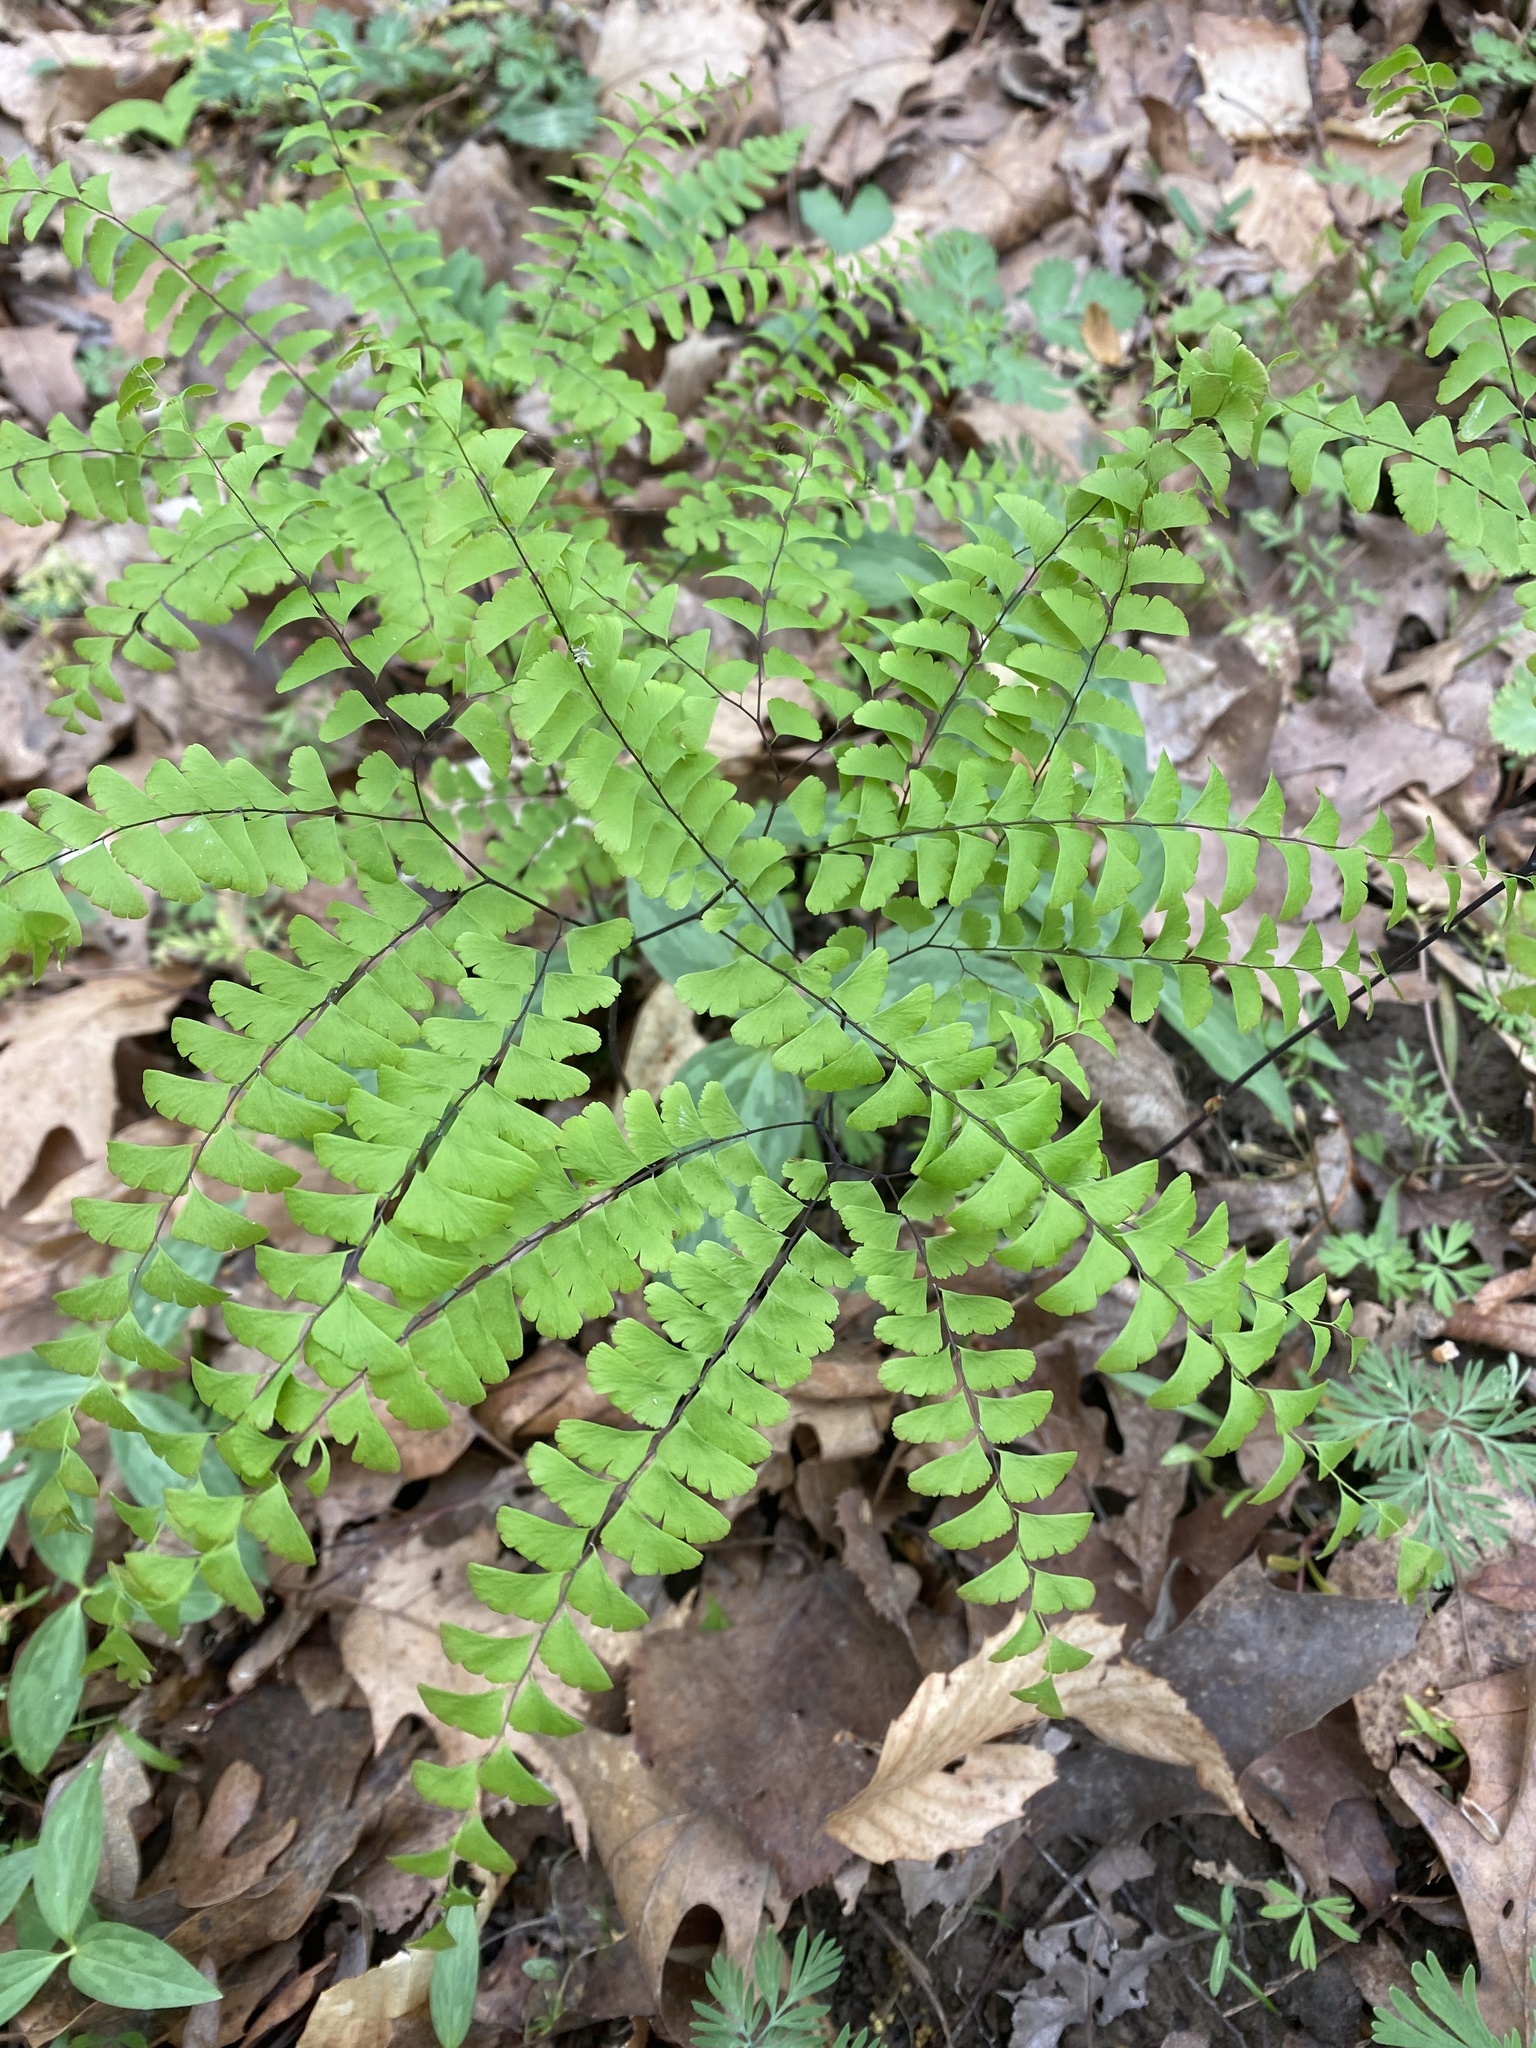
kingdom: Plantae
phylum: Tracheophyta
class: Polypodiopsida
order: Polypodiales
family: Pteridaceae
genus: Adiantum
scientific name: Adiantum pedatum
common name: Five-finger fern
